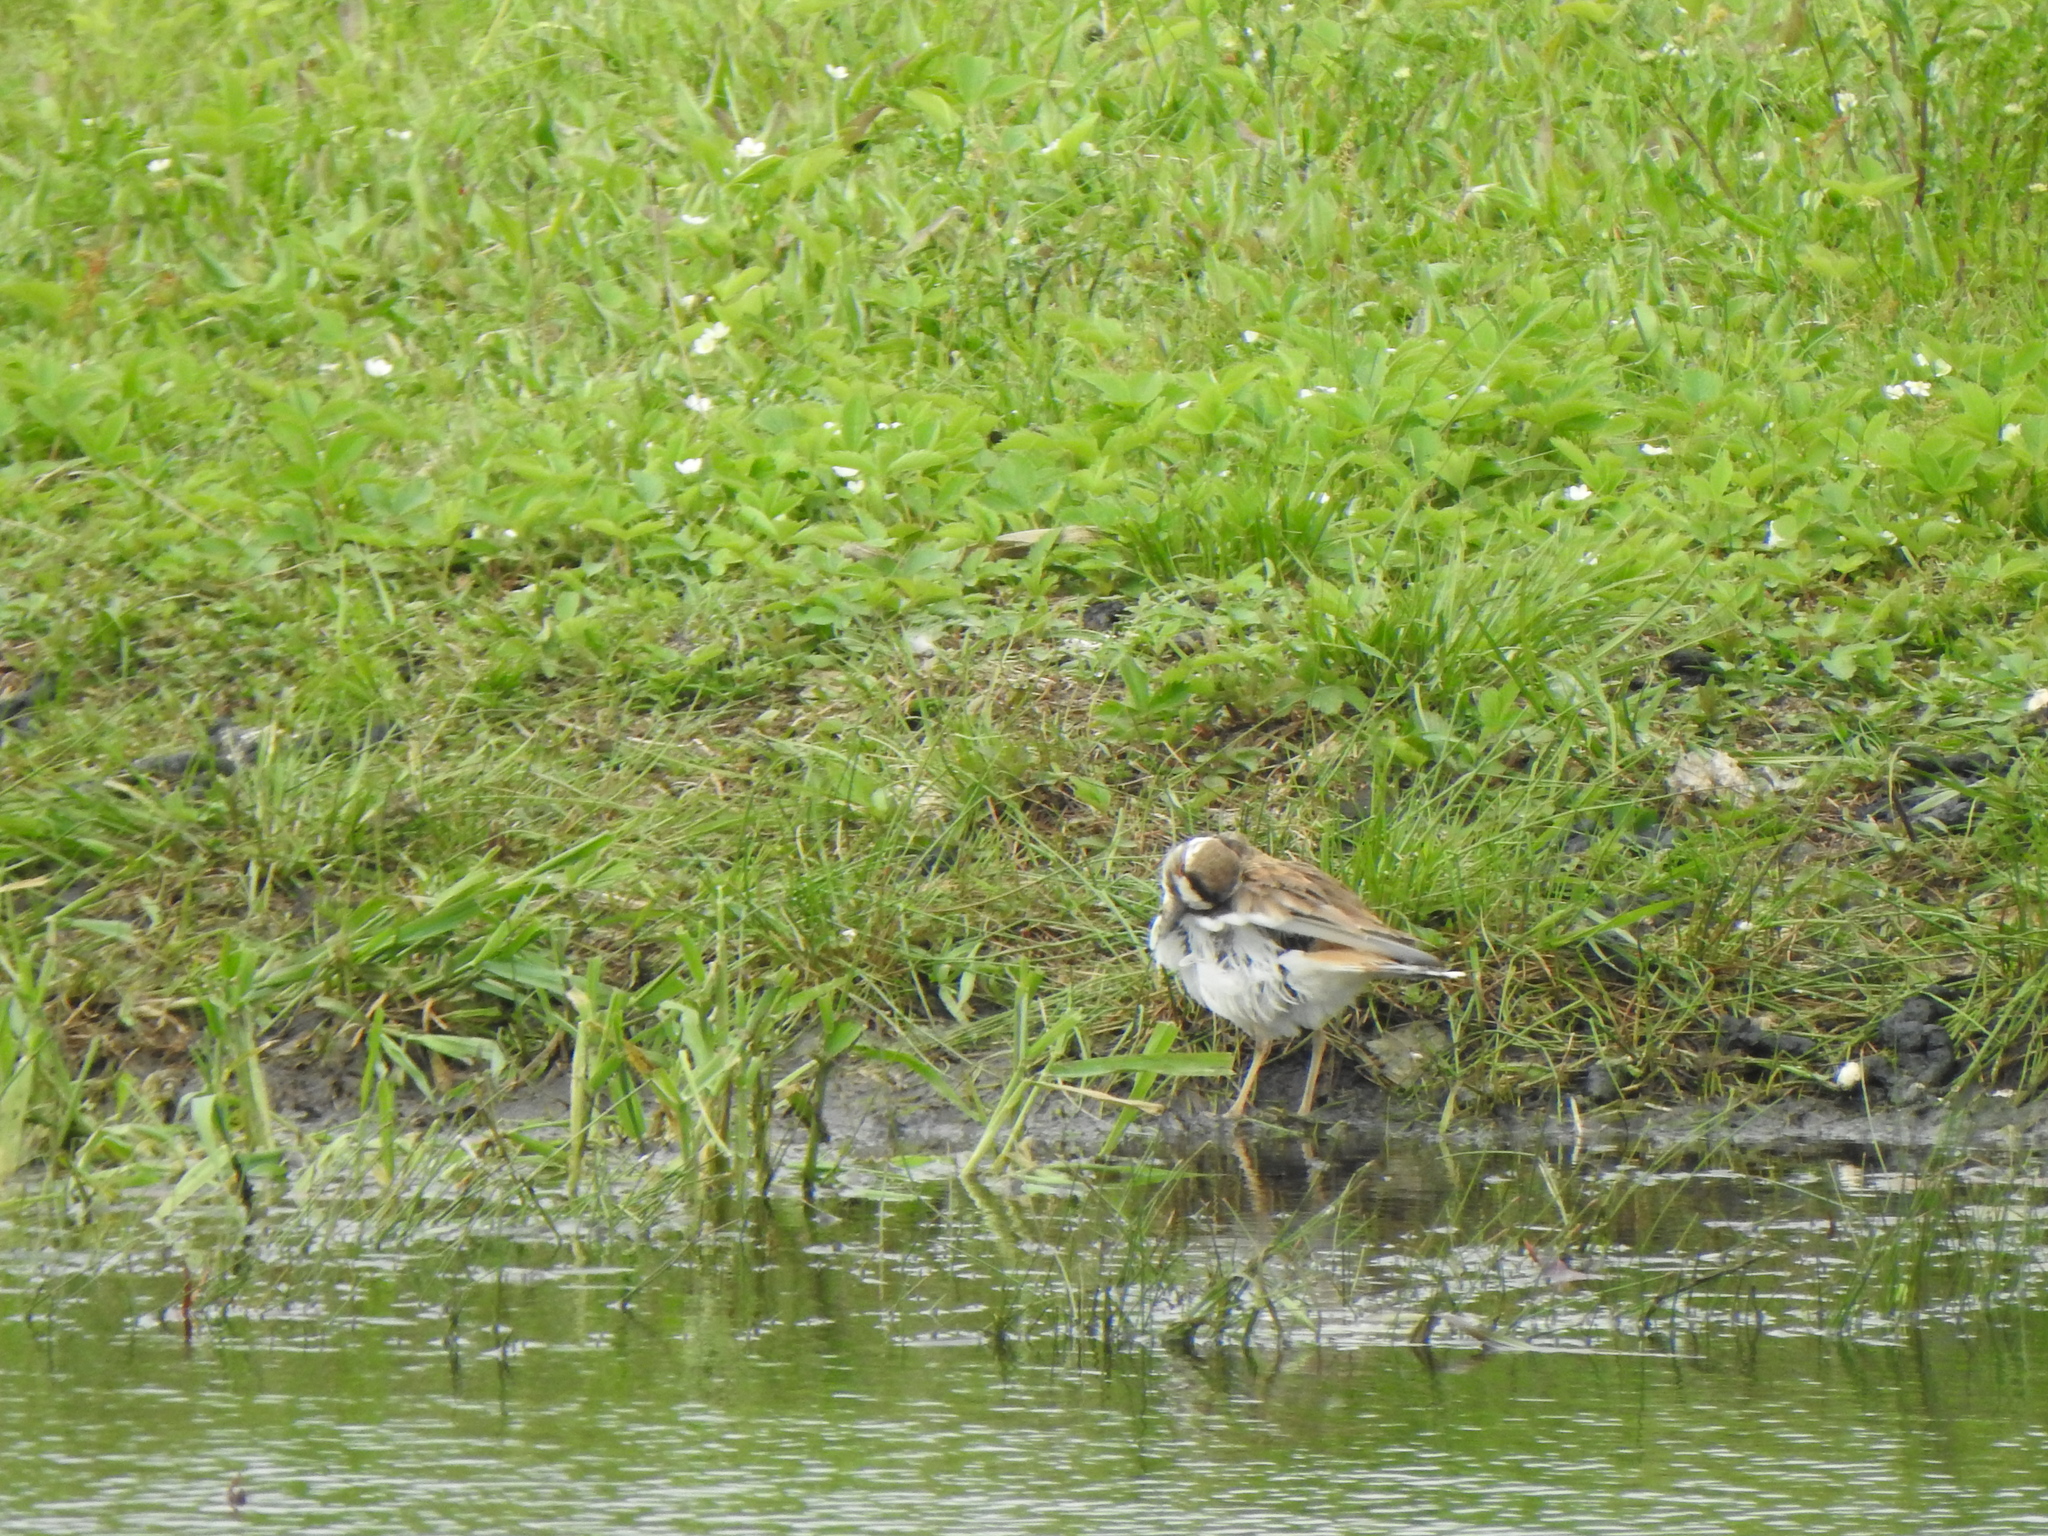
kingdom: Animalia
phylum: Chordata
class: Aves
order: Charadriiformes
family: Charadriidae
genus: Charadrius
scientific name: Charadrius vociferus
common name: Killdeer
